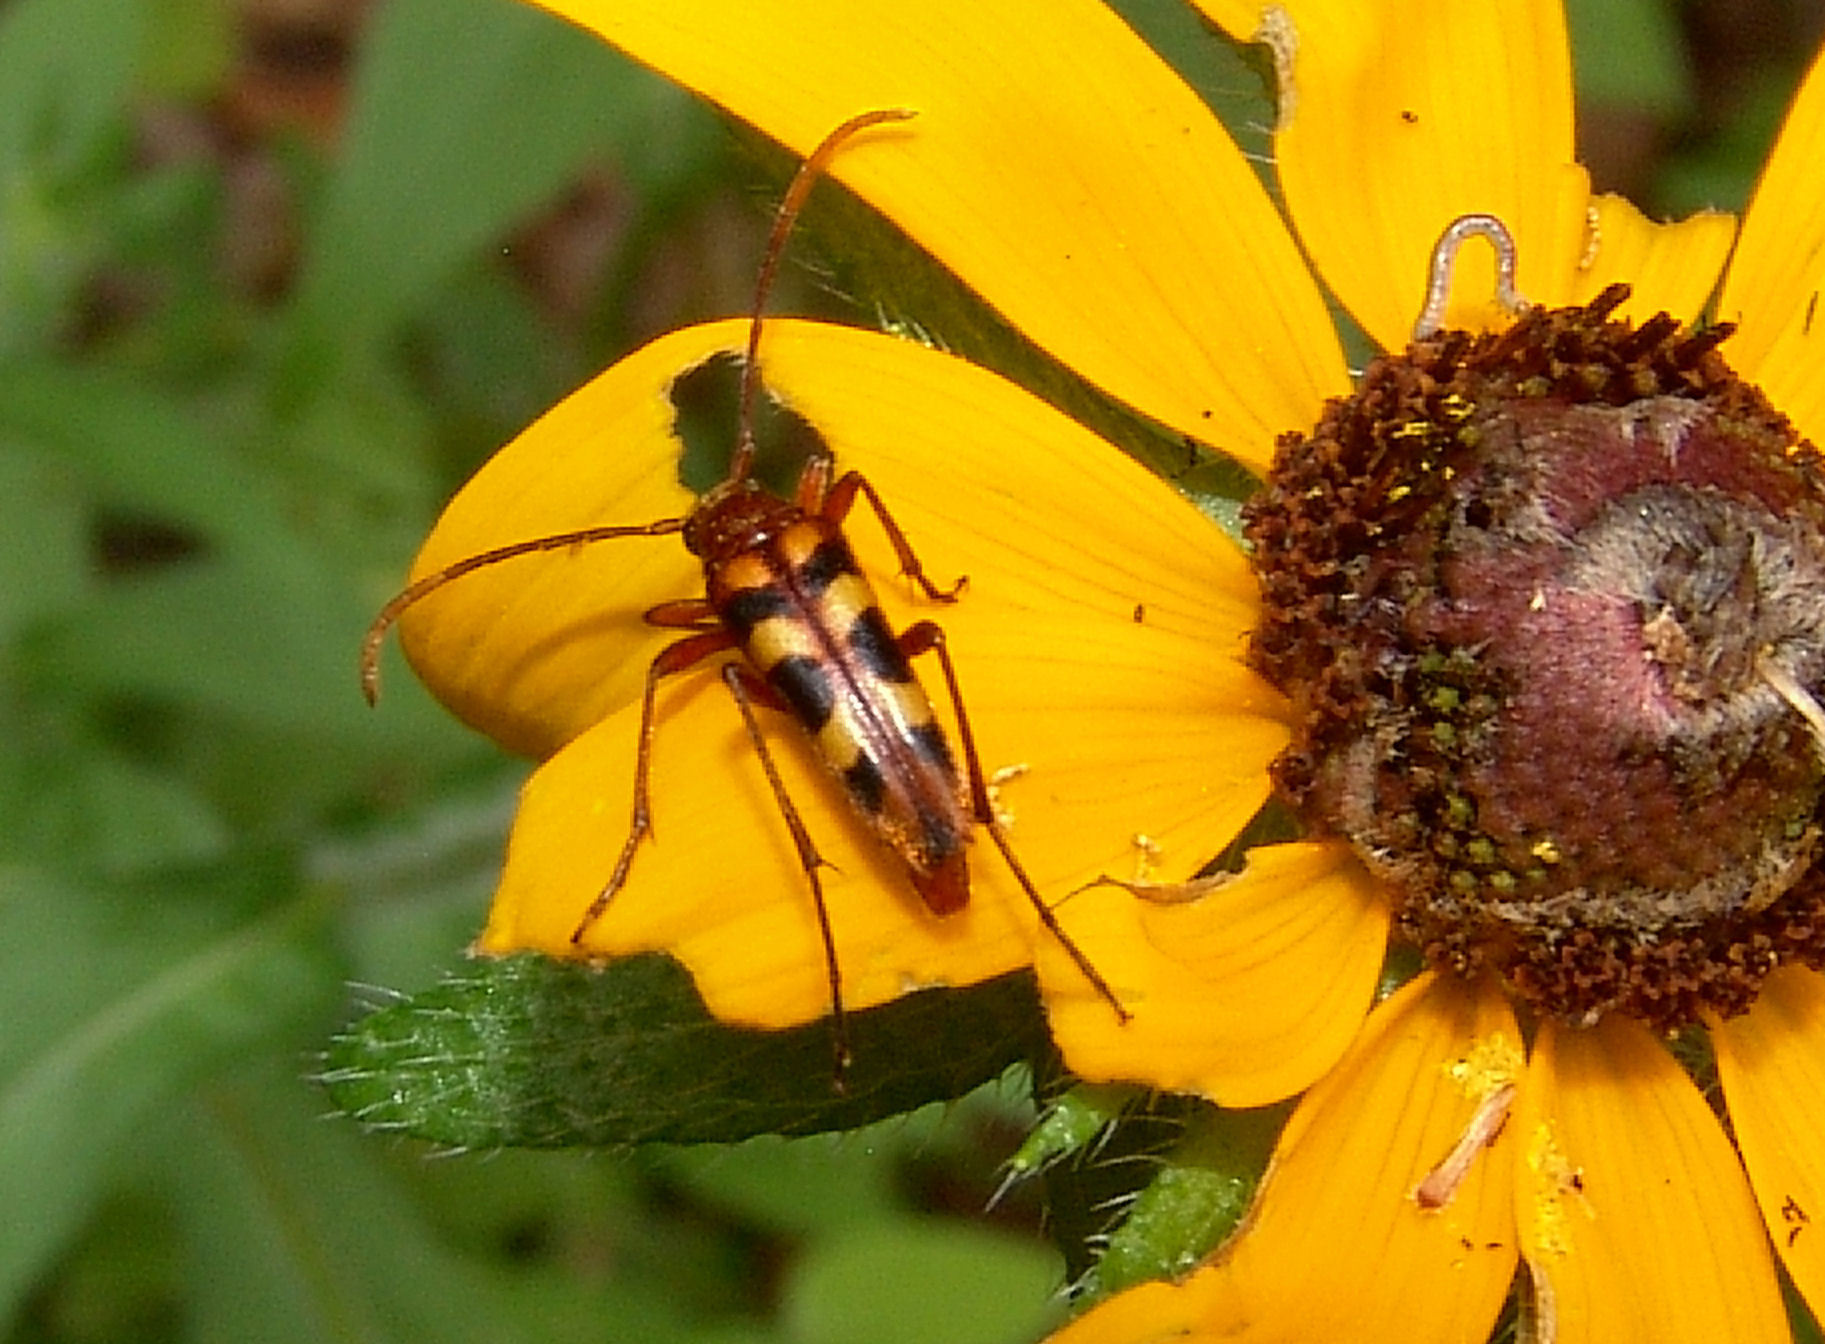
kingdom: Animalia
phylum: Arthropoda
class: Insecta
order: Coleoptera
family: Cerambycidae
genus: Strangalia
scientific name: Strangalia sexnotata
